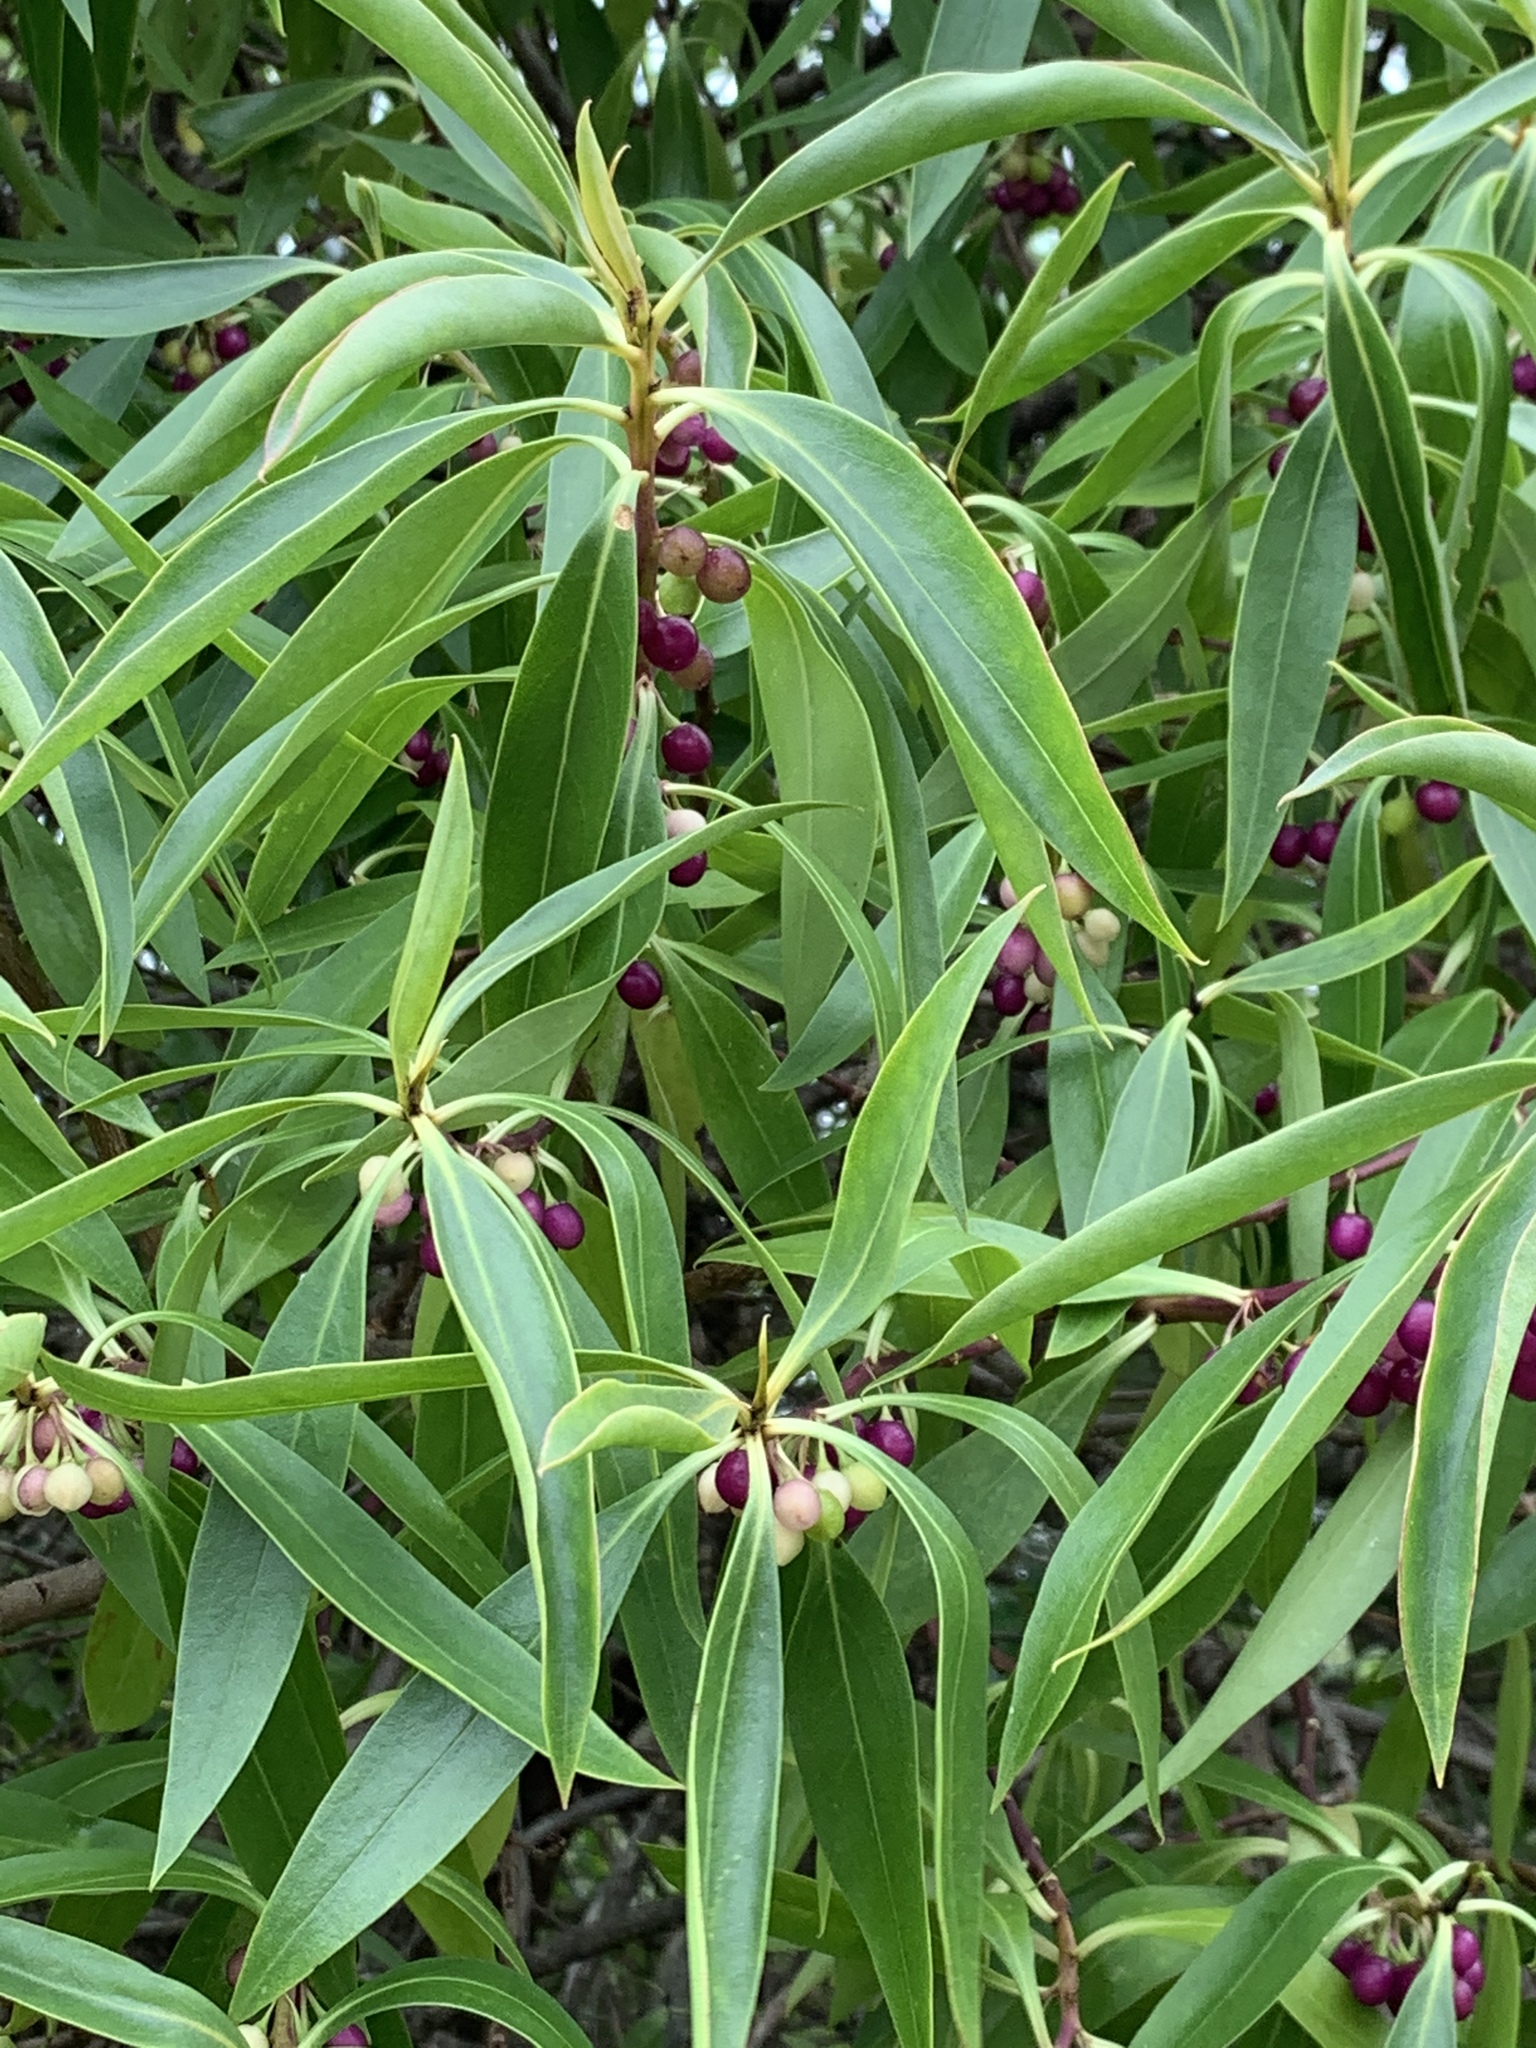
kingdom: Plantae
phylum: Tracheophyta
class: Magnoliopsida
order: Lamiales
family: Scrophulariaceae
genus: Myoporum
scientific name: Myoporum montanum
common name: Waterbush
